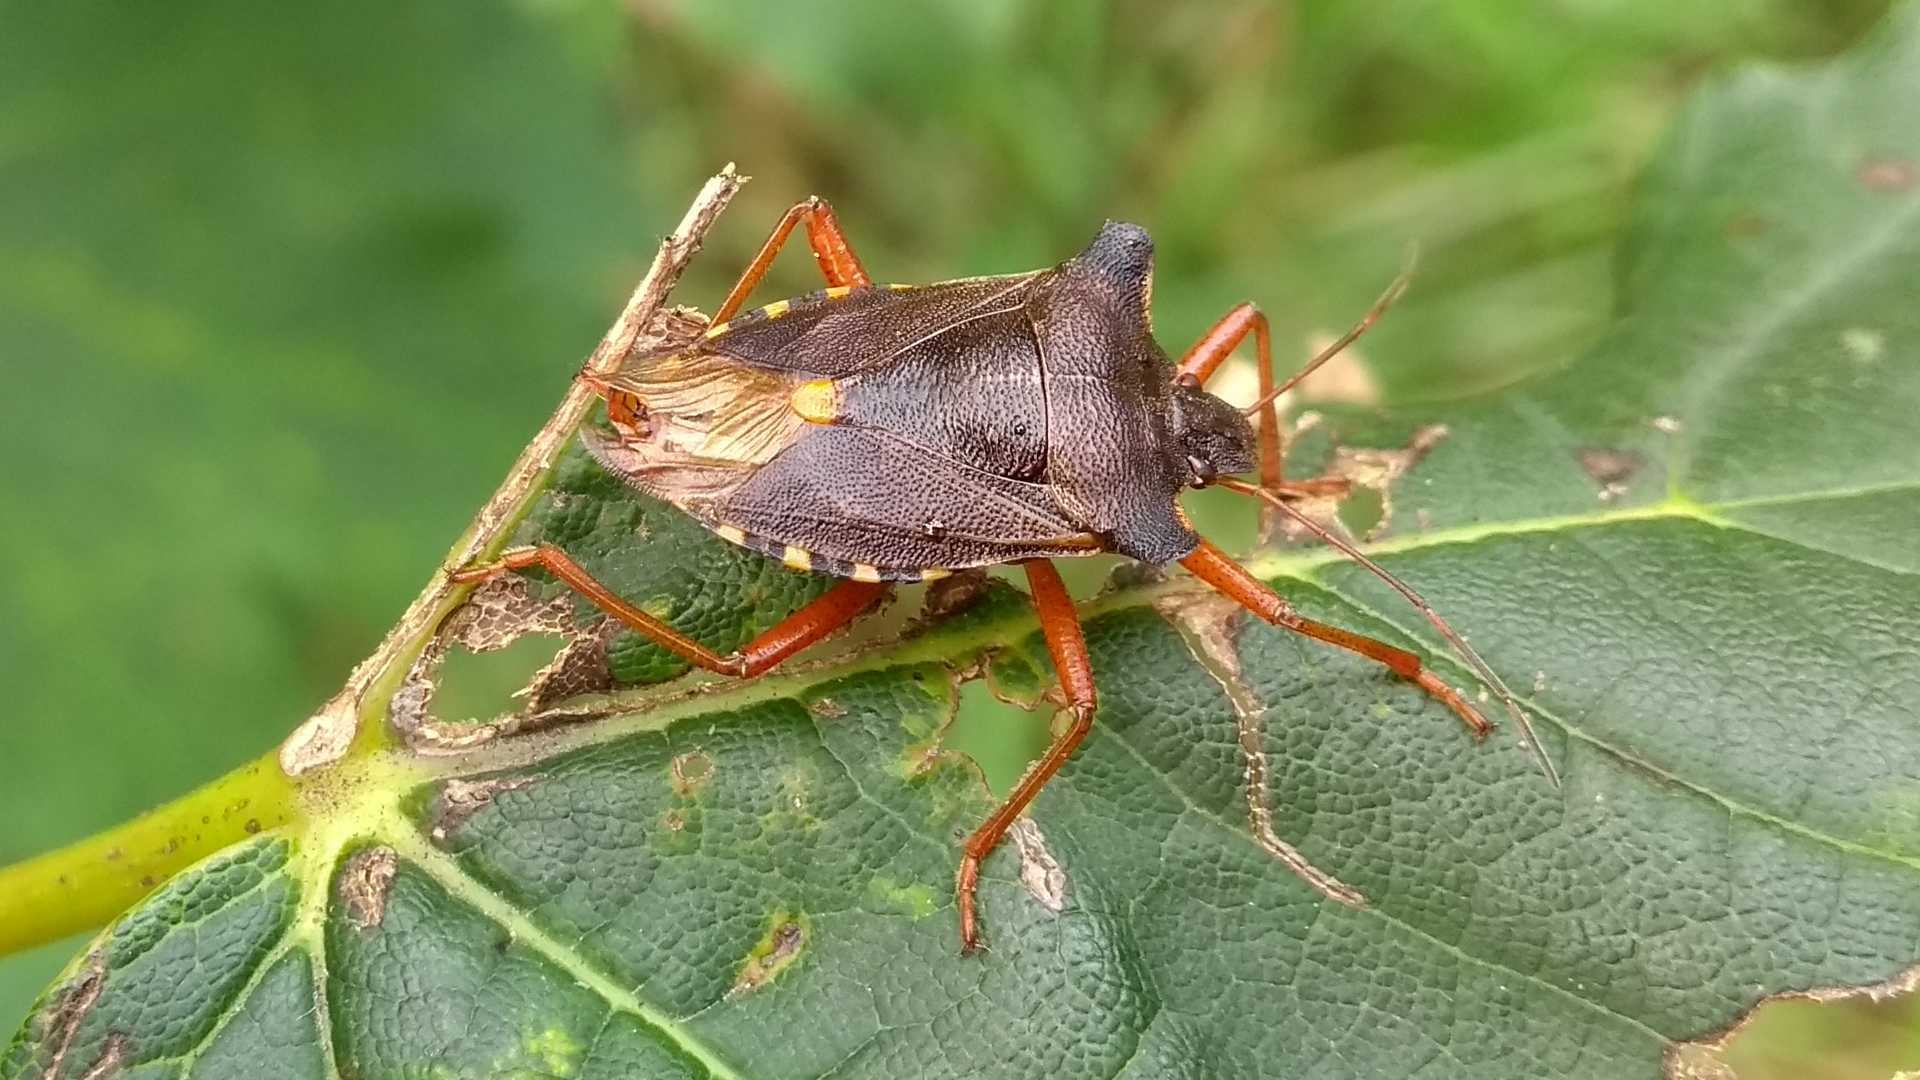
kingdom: Animalia
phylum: Arthropoda
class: Insecta
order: Hemiptera
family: Pentatomidae
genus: Pentatoma
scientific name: Pentatoma rufipes
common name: Forest bug
